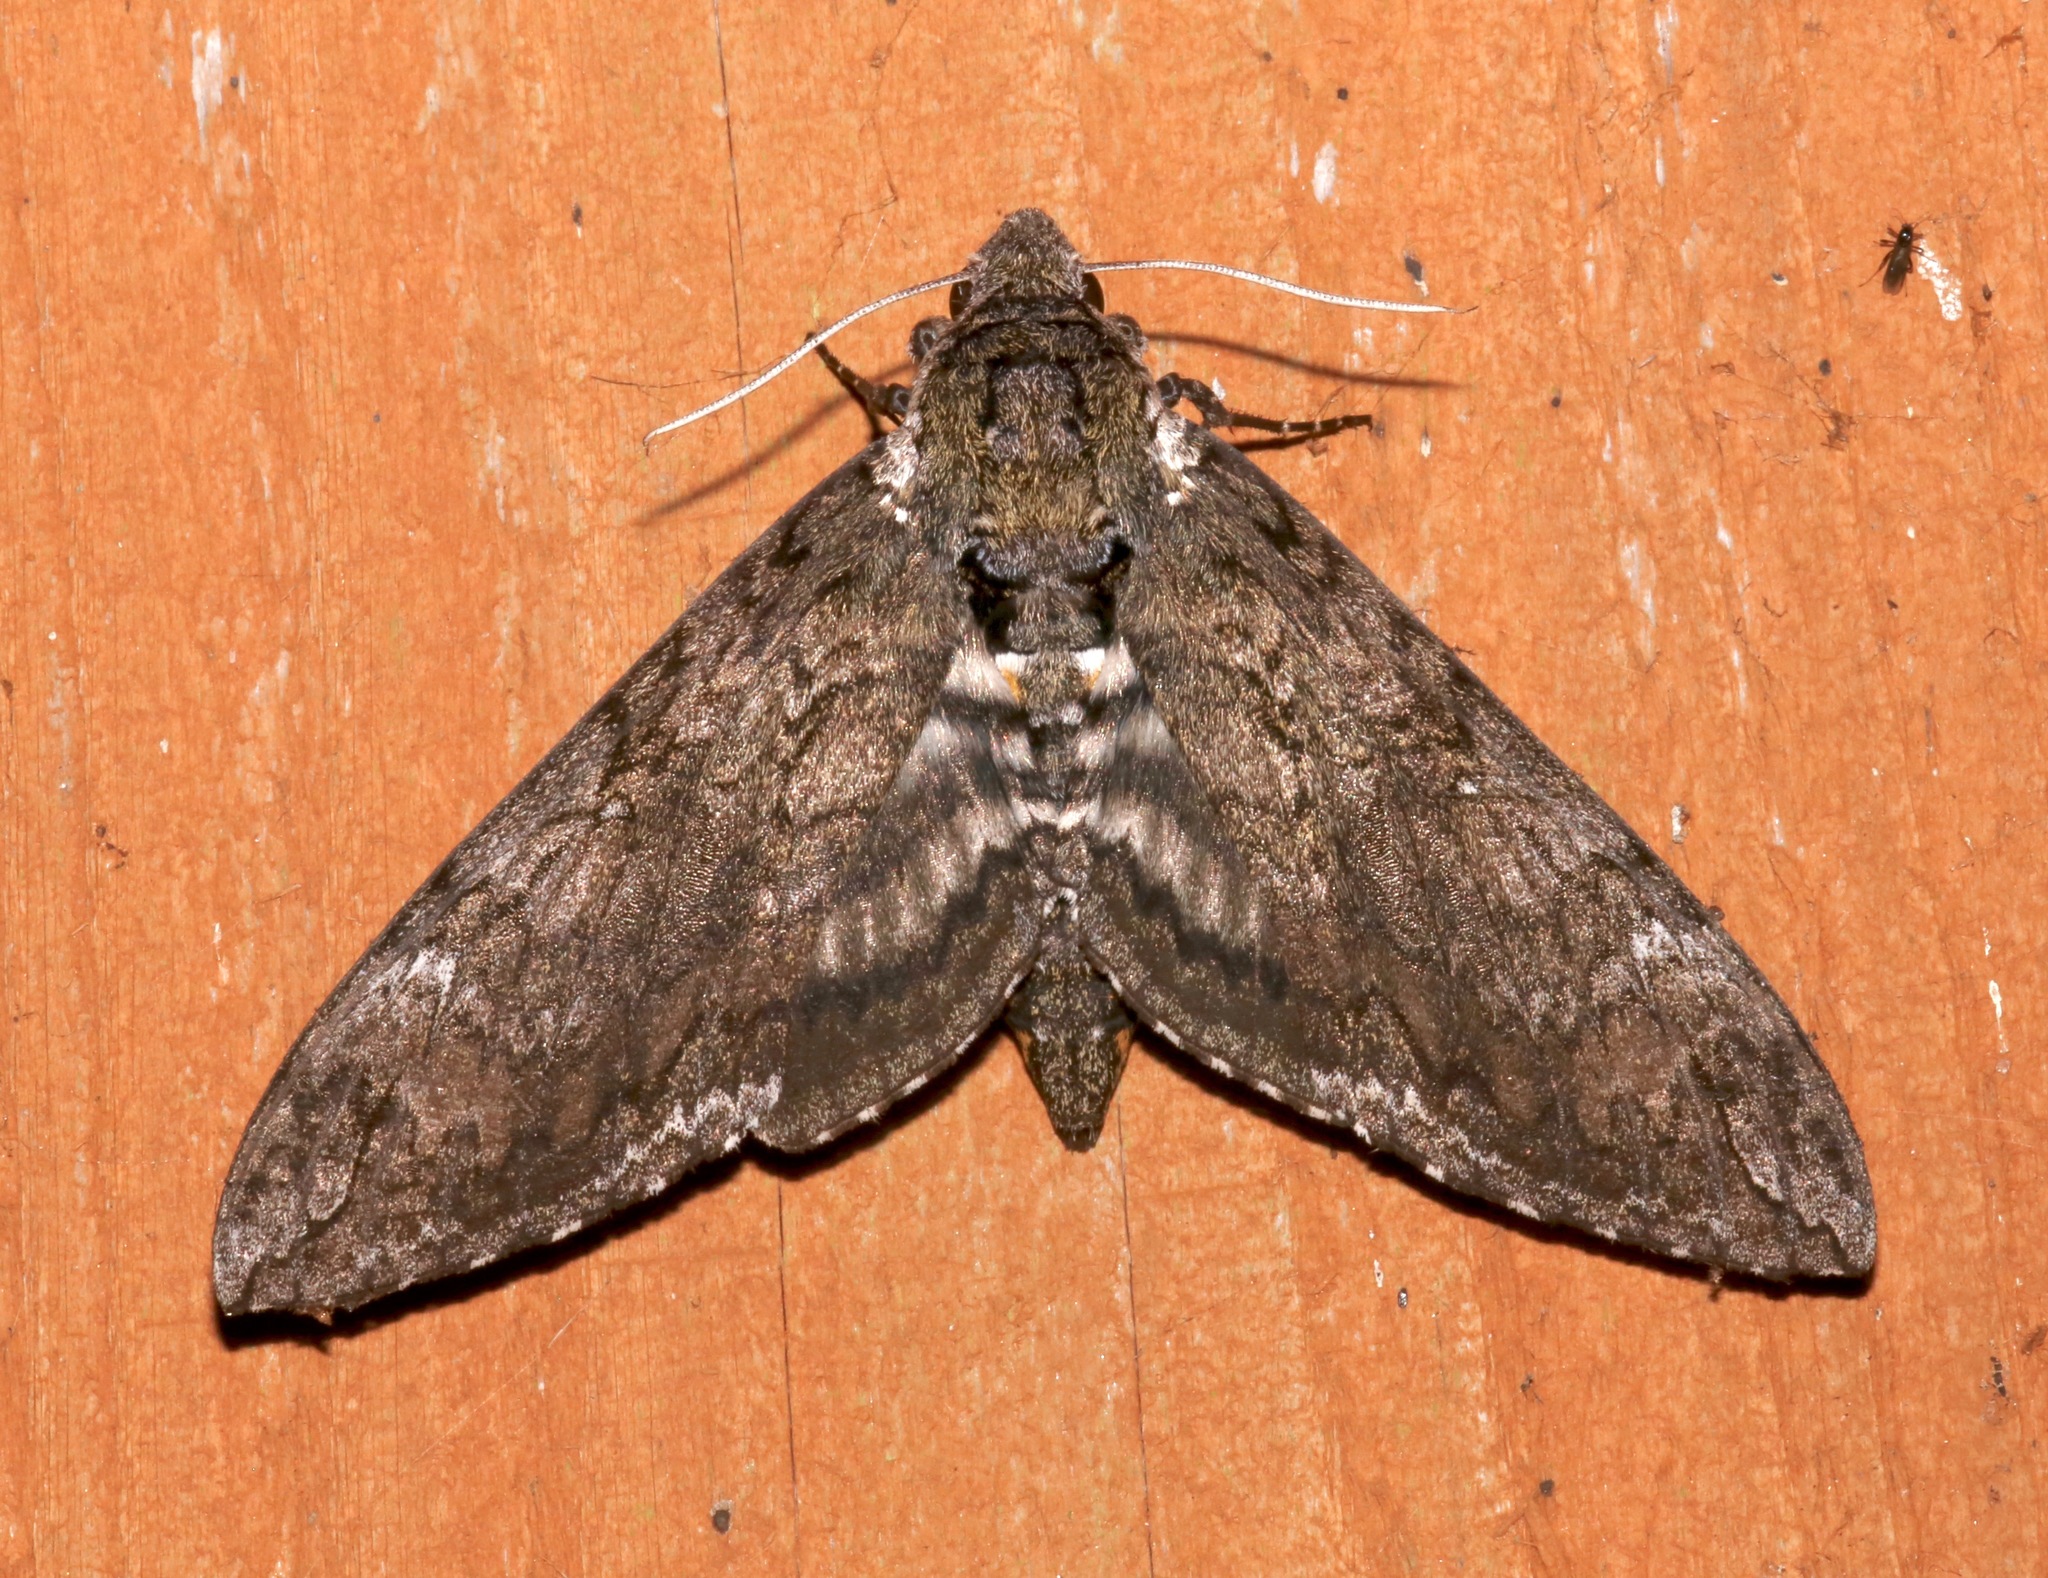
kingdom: Animalia
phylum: Arthropoda
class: Insecta
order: Lepidoptera
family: Sphingidae
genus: Manduca
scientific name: Manduca sexta
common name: Carolina sphinx
